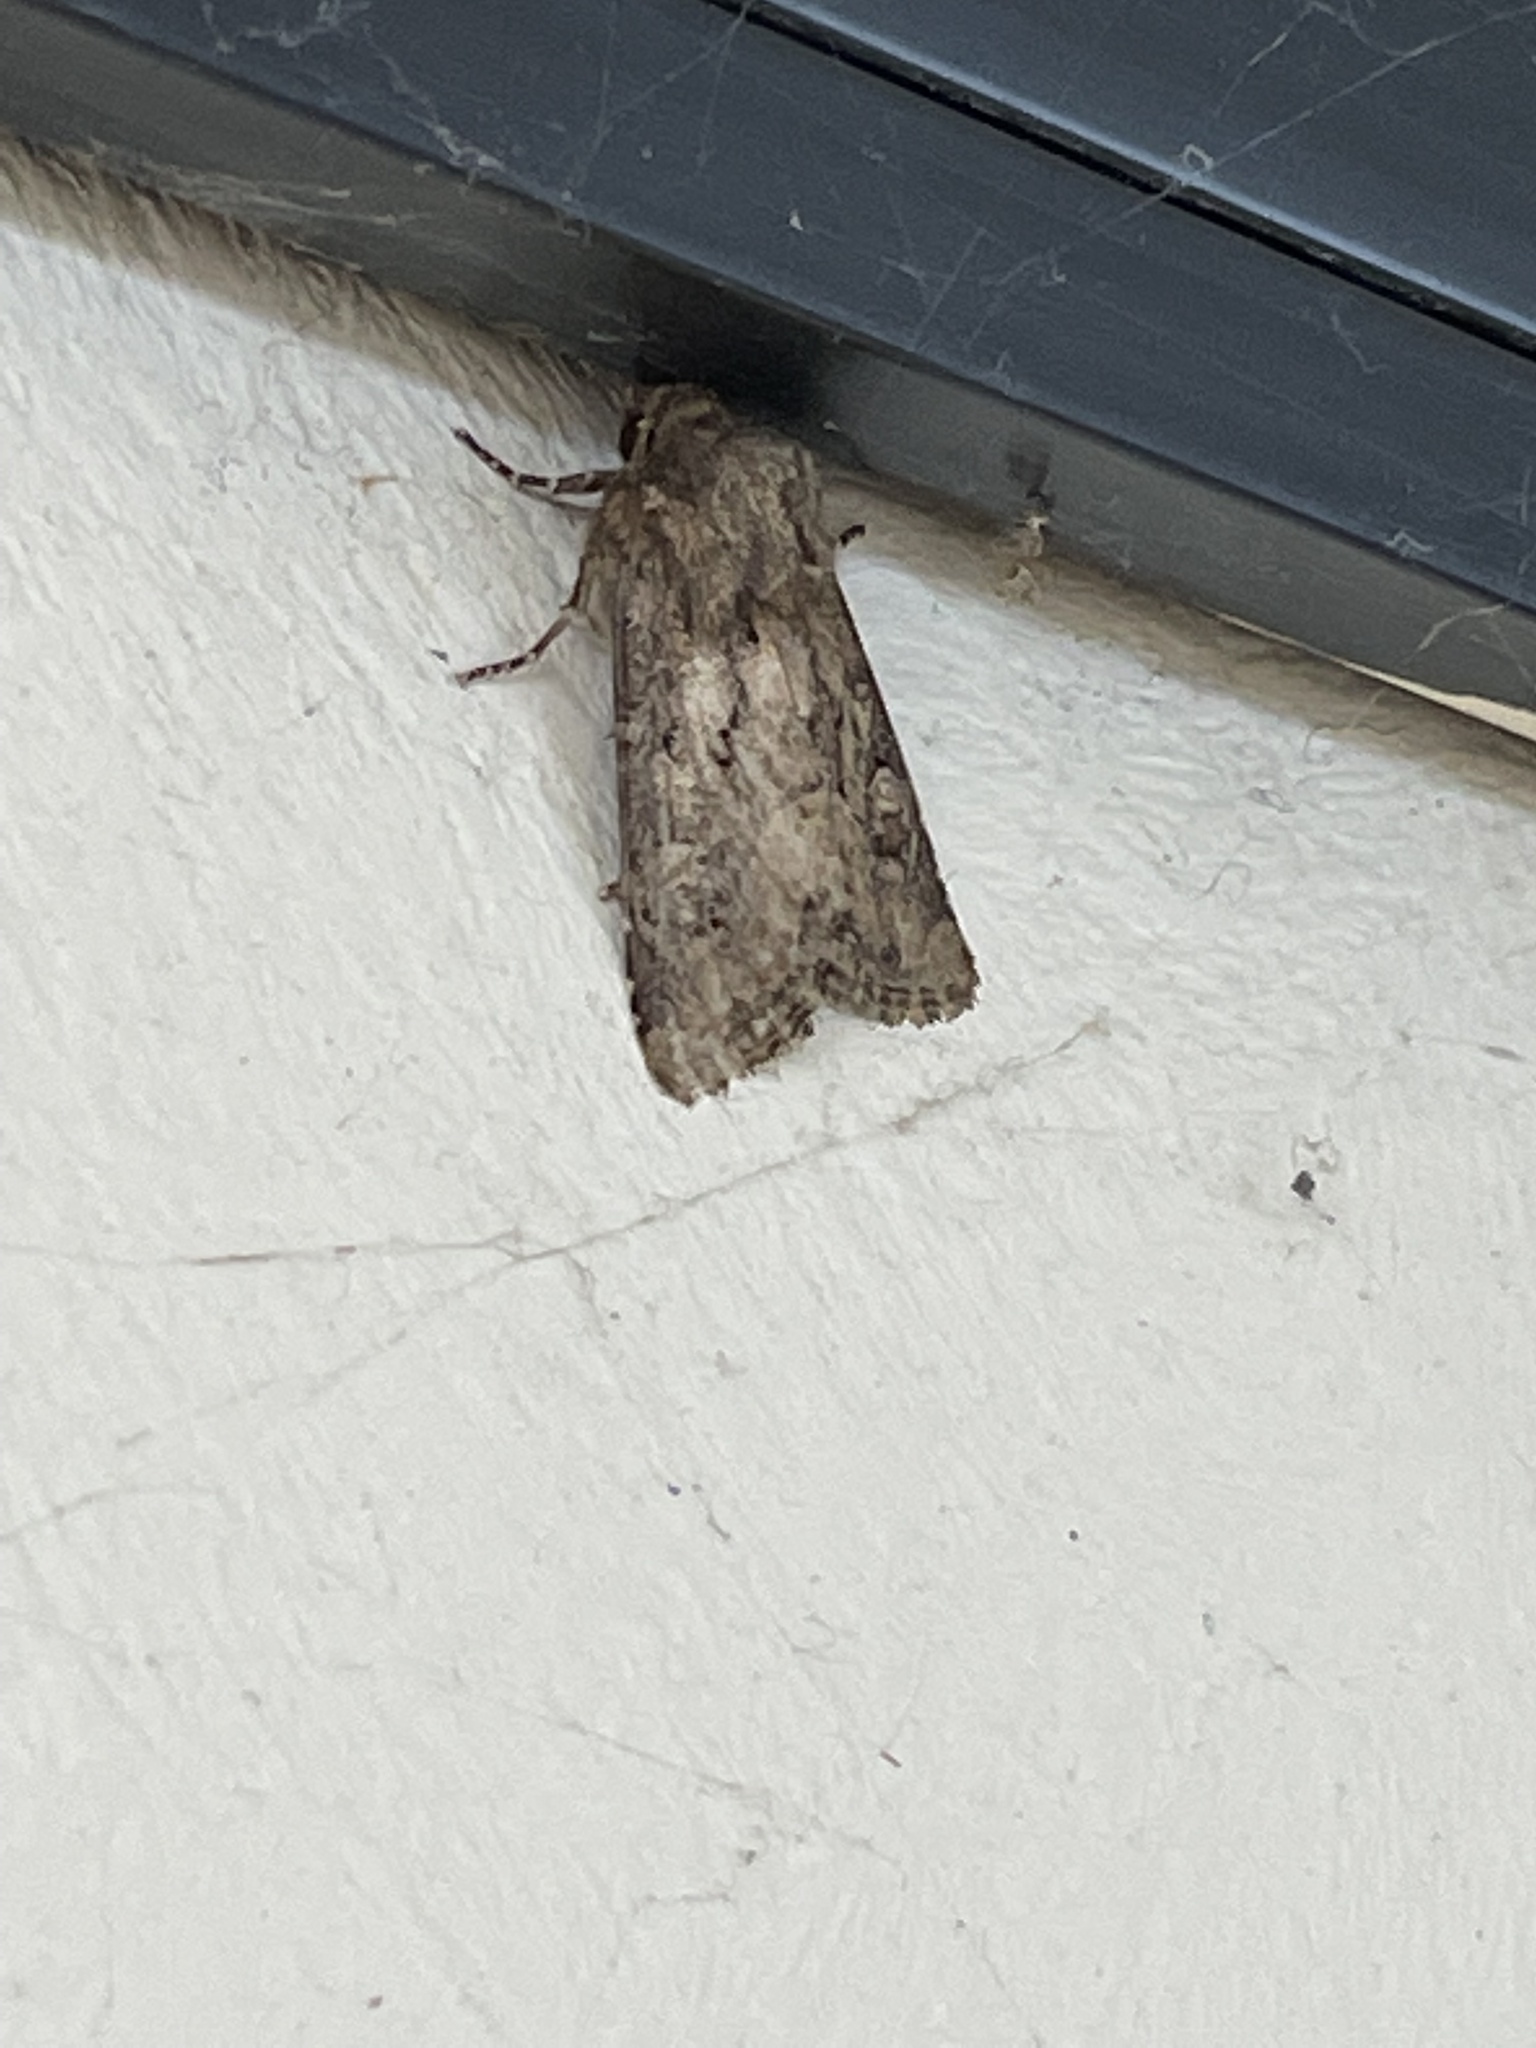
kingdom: Animalia
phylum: Arthropoda
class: Insecta
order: Lepidoptera
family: Noctuidae
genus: Luperina
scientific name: Luperina testacea
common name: Flounced rustic
